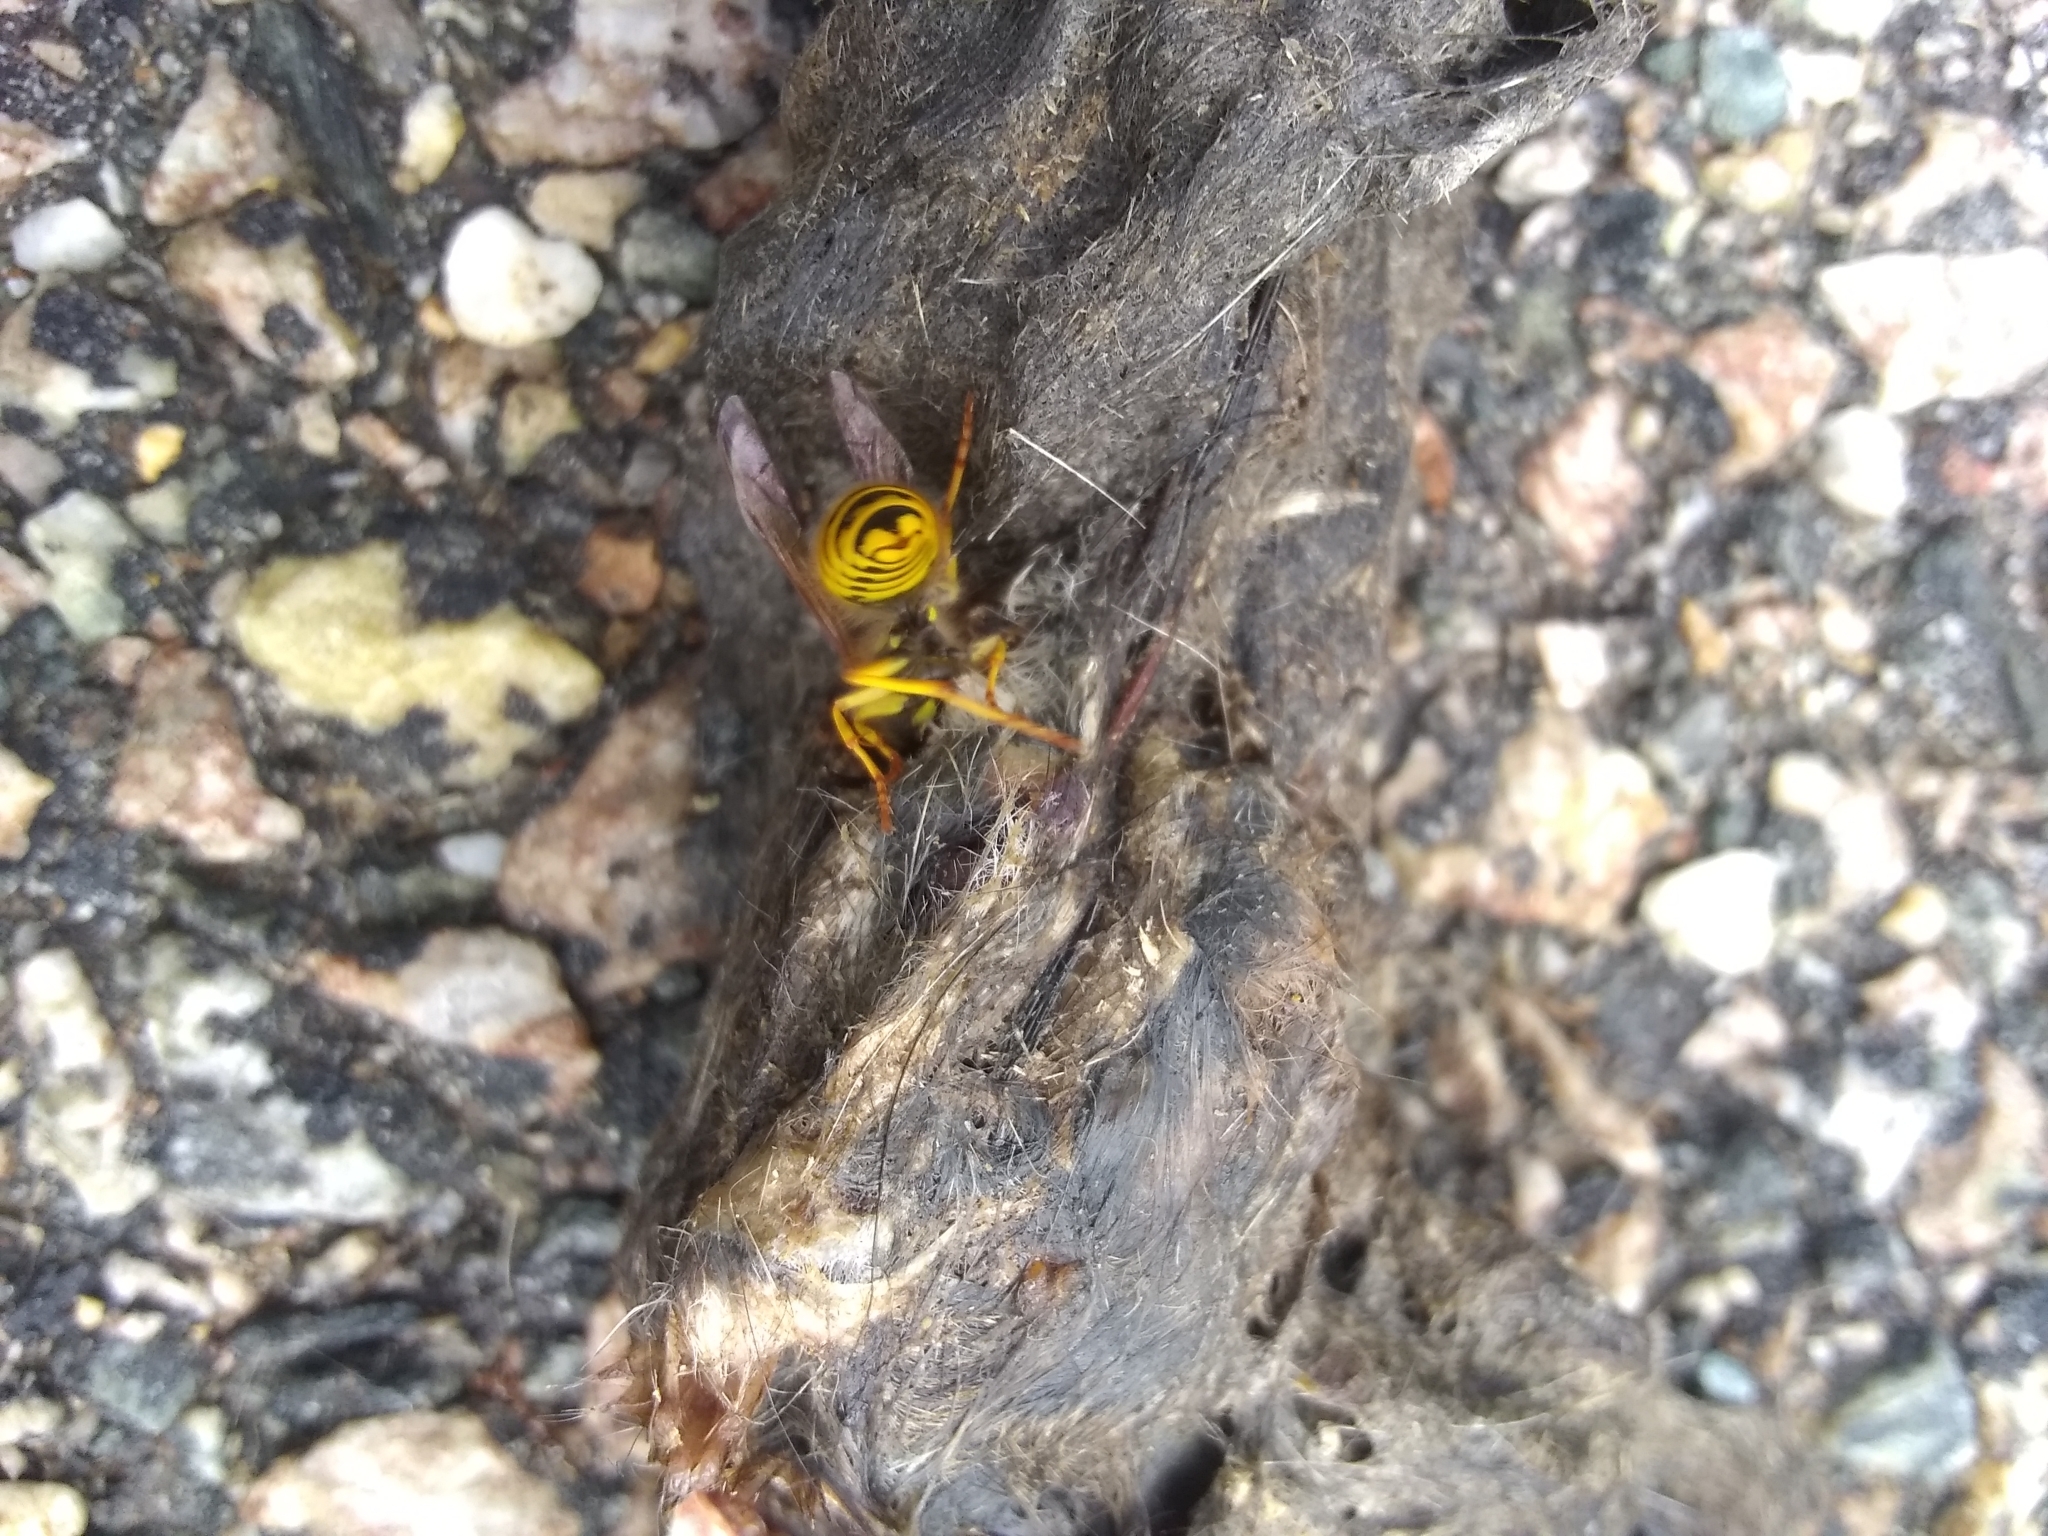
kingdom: Animalia
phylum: Arthropoda
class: Insecta
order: Hymenoptera
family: Vespidae
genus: Vespula
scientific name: Vespula
